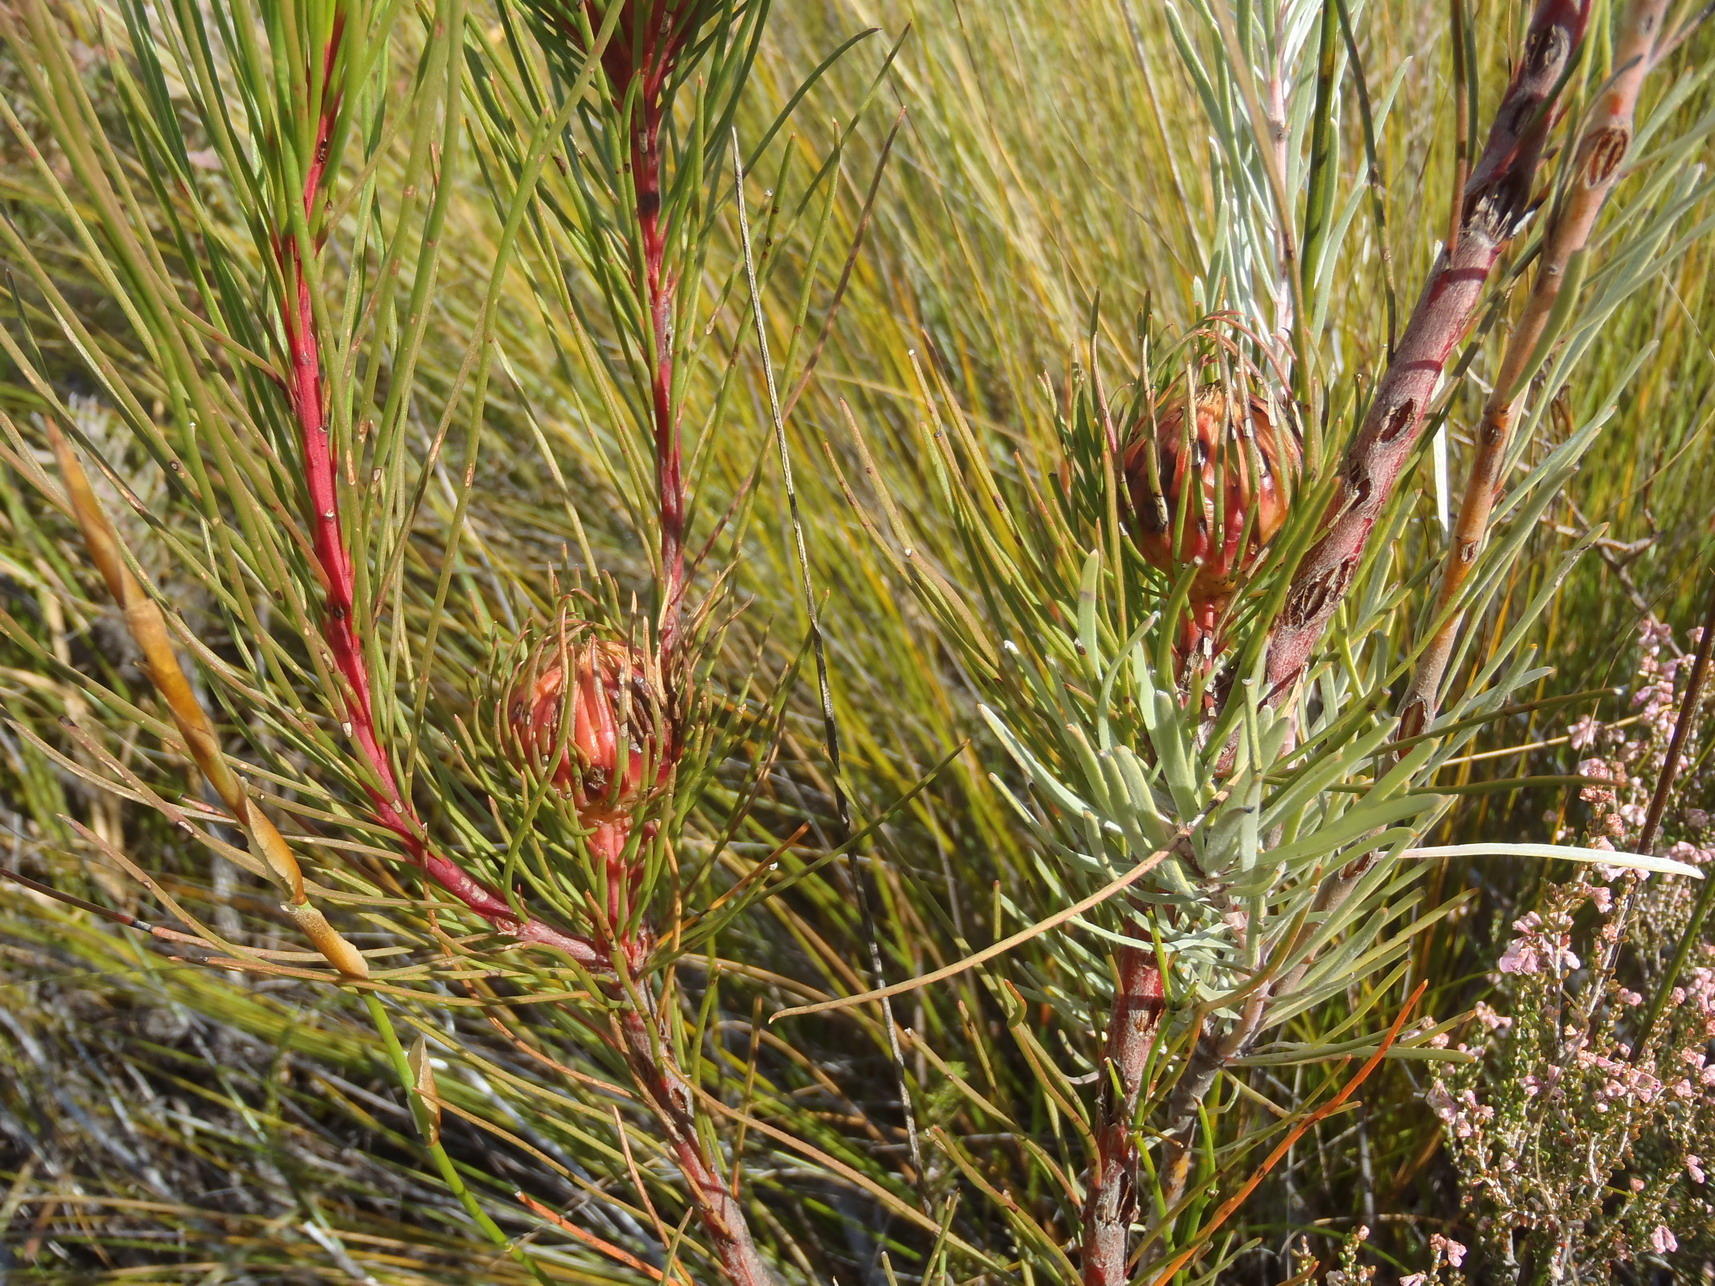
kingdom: Plantae
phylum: Tracheophyta
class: Magnoliopsida
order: Proteales
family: Proteaceae
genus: Aulax
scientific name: Aulax cancellata
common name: Channel-leaf featherbush
